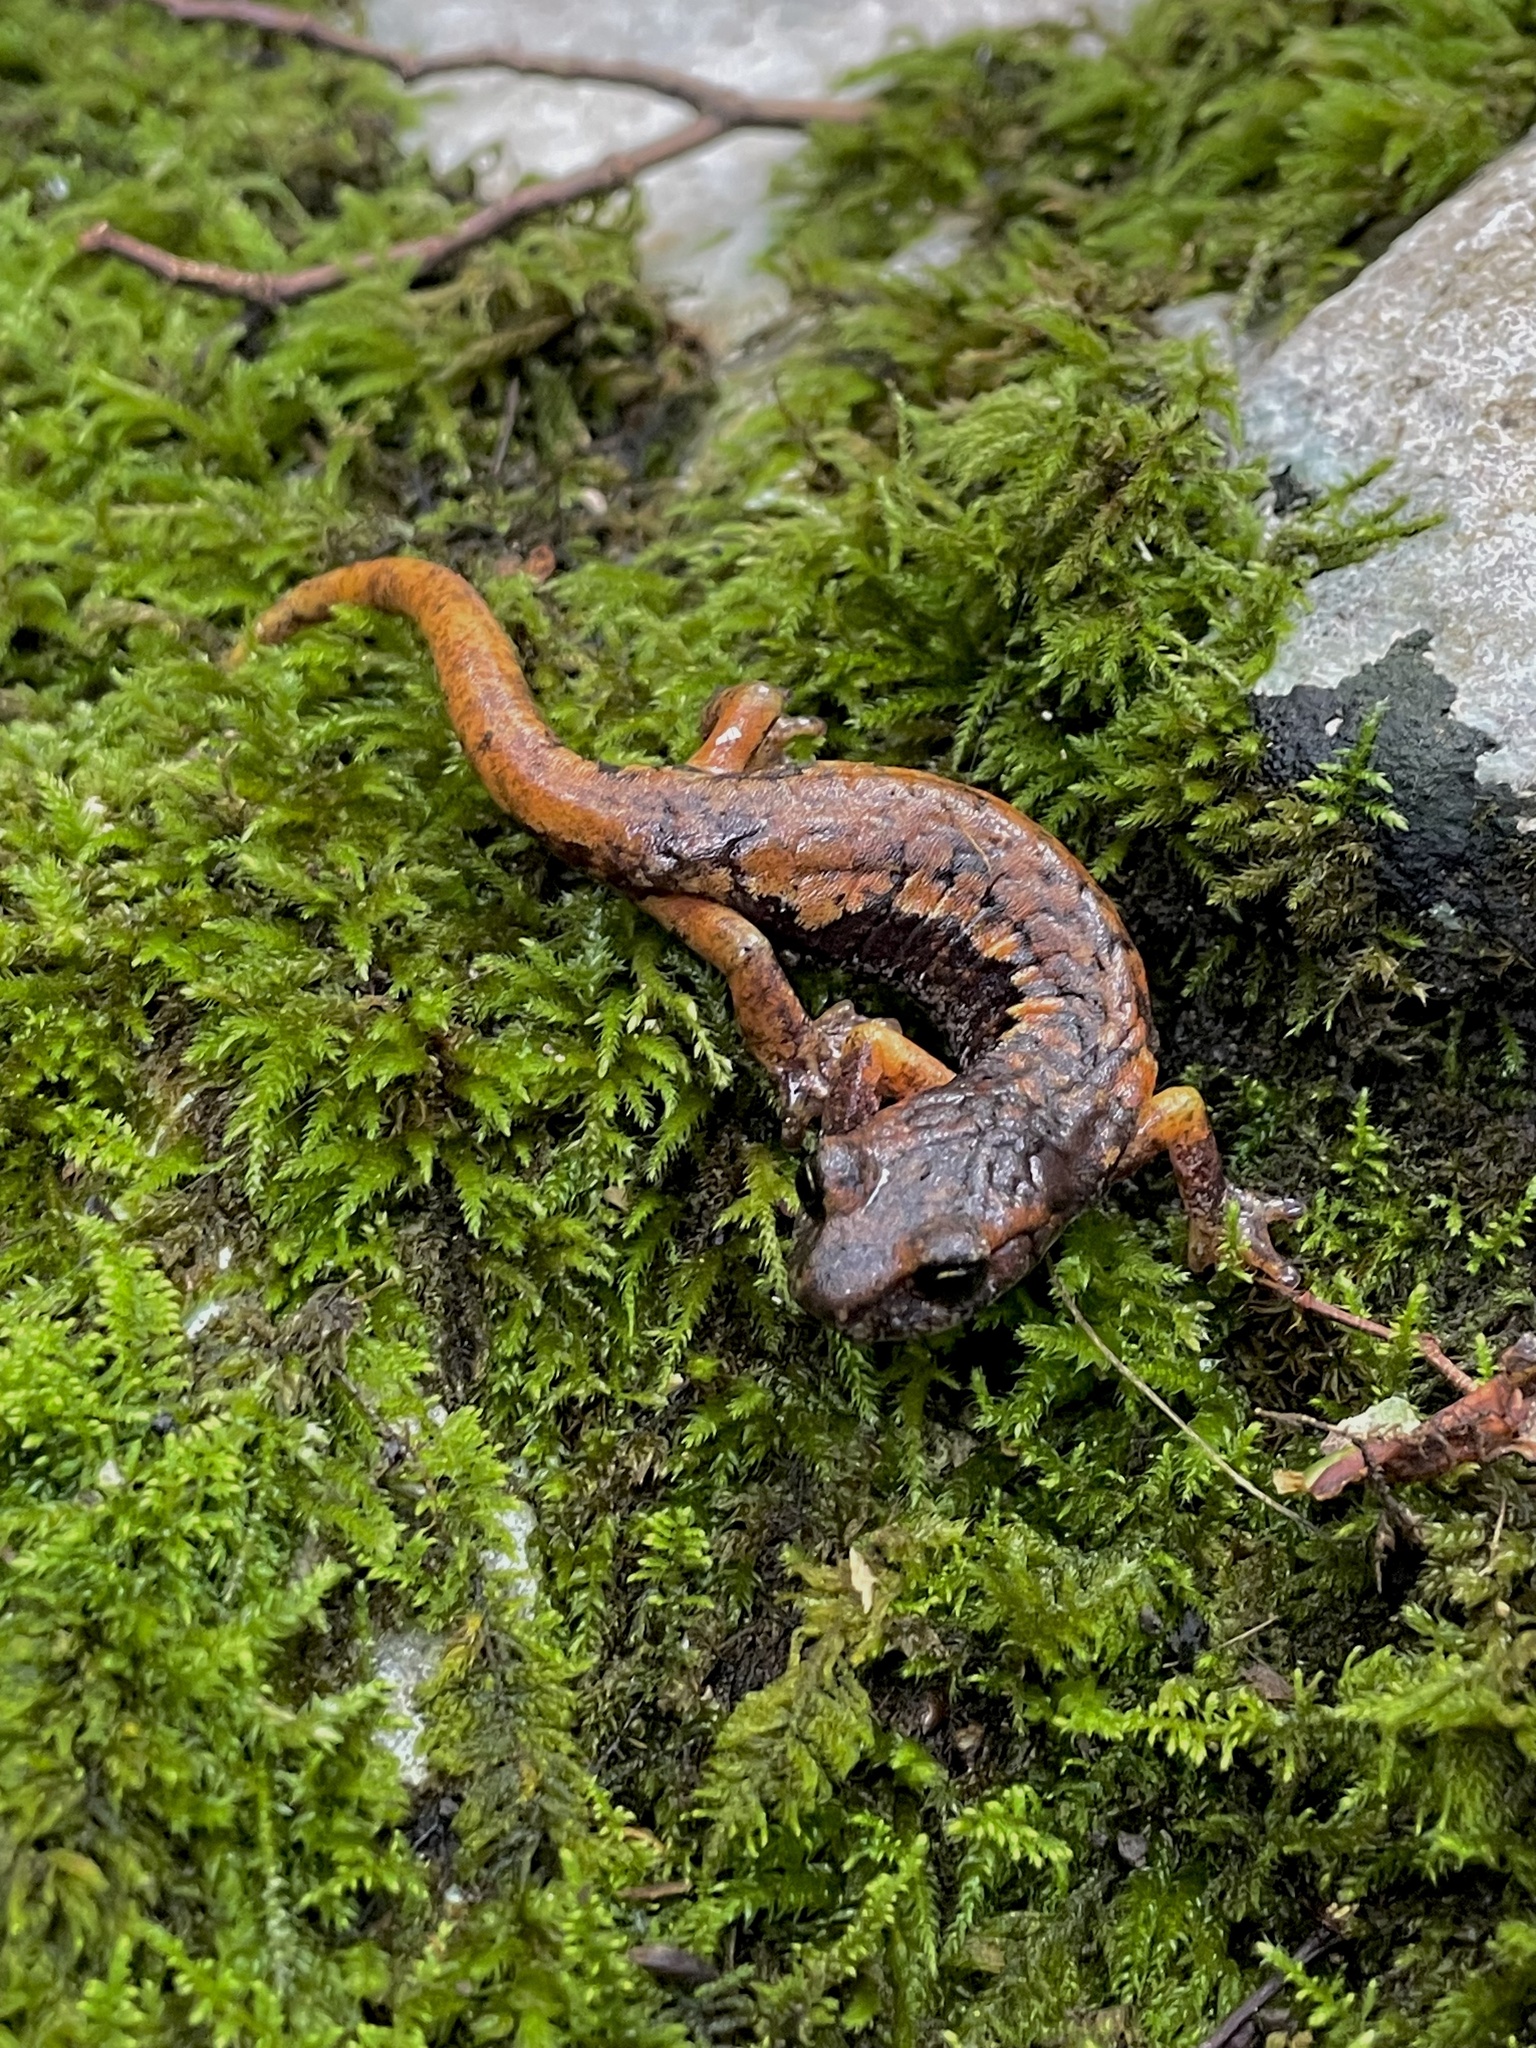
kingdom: Animalia
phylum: Chordata
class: Amphibia
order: Caudata
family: Plethodontidae
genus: Speleomantes
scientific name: Speleomantes italicus
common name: Italian cave salamander
